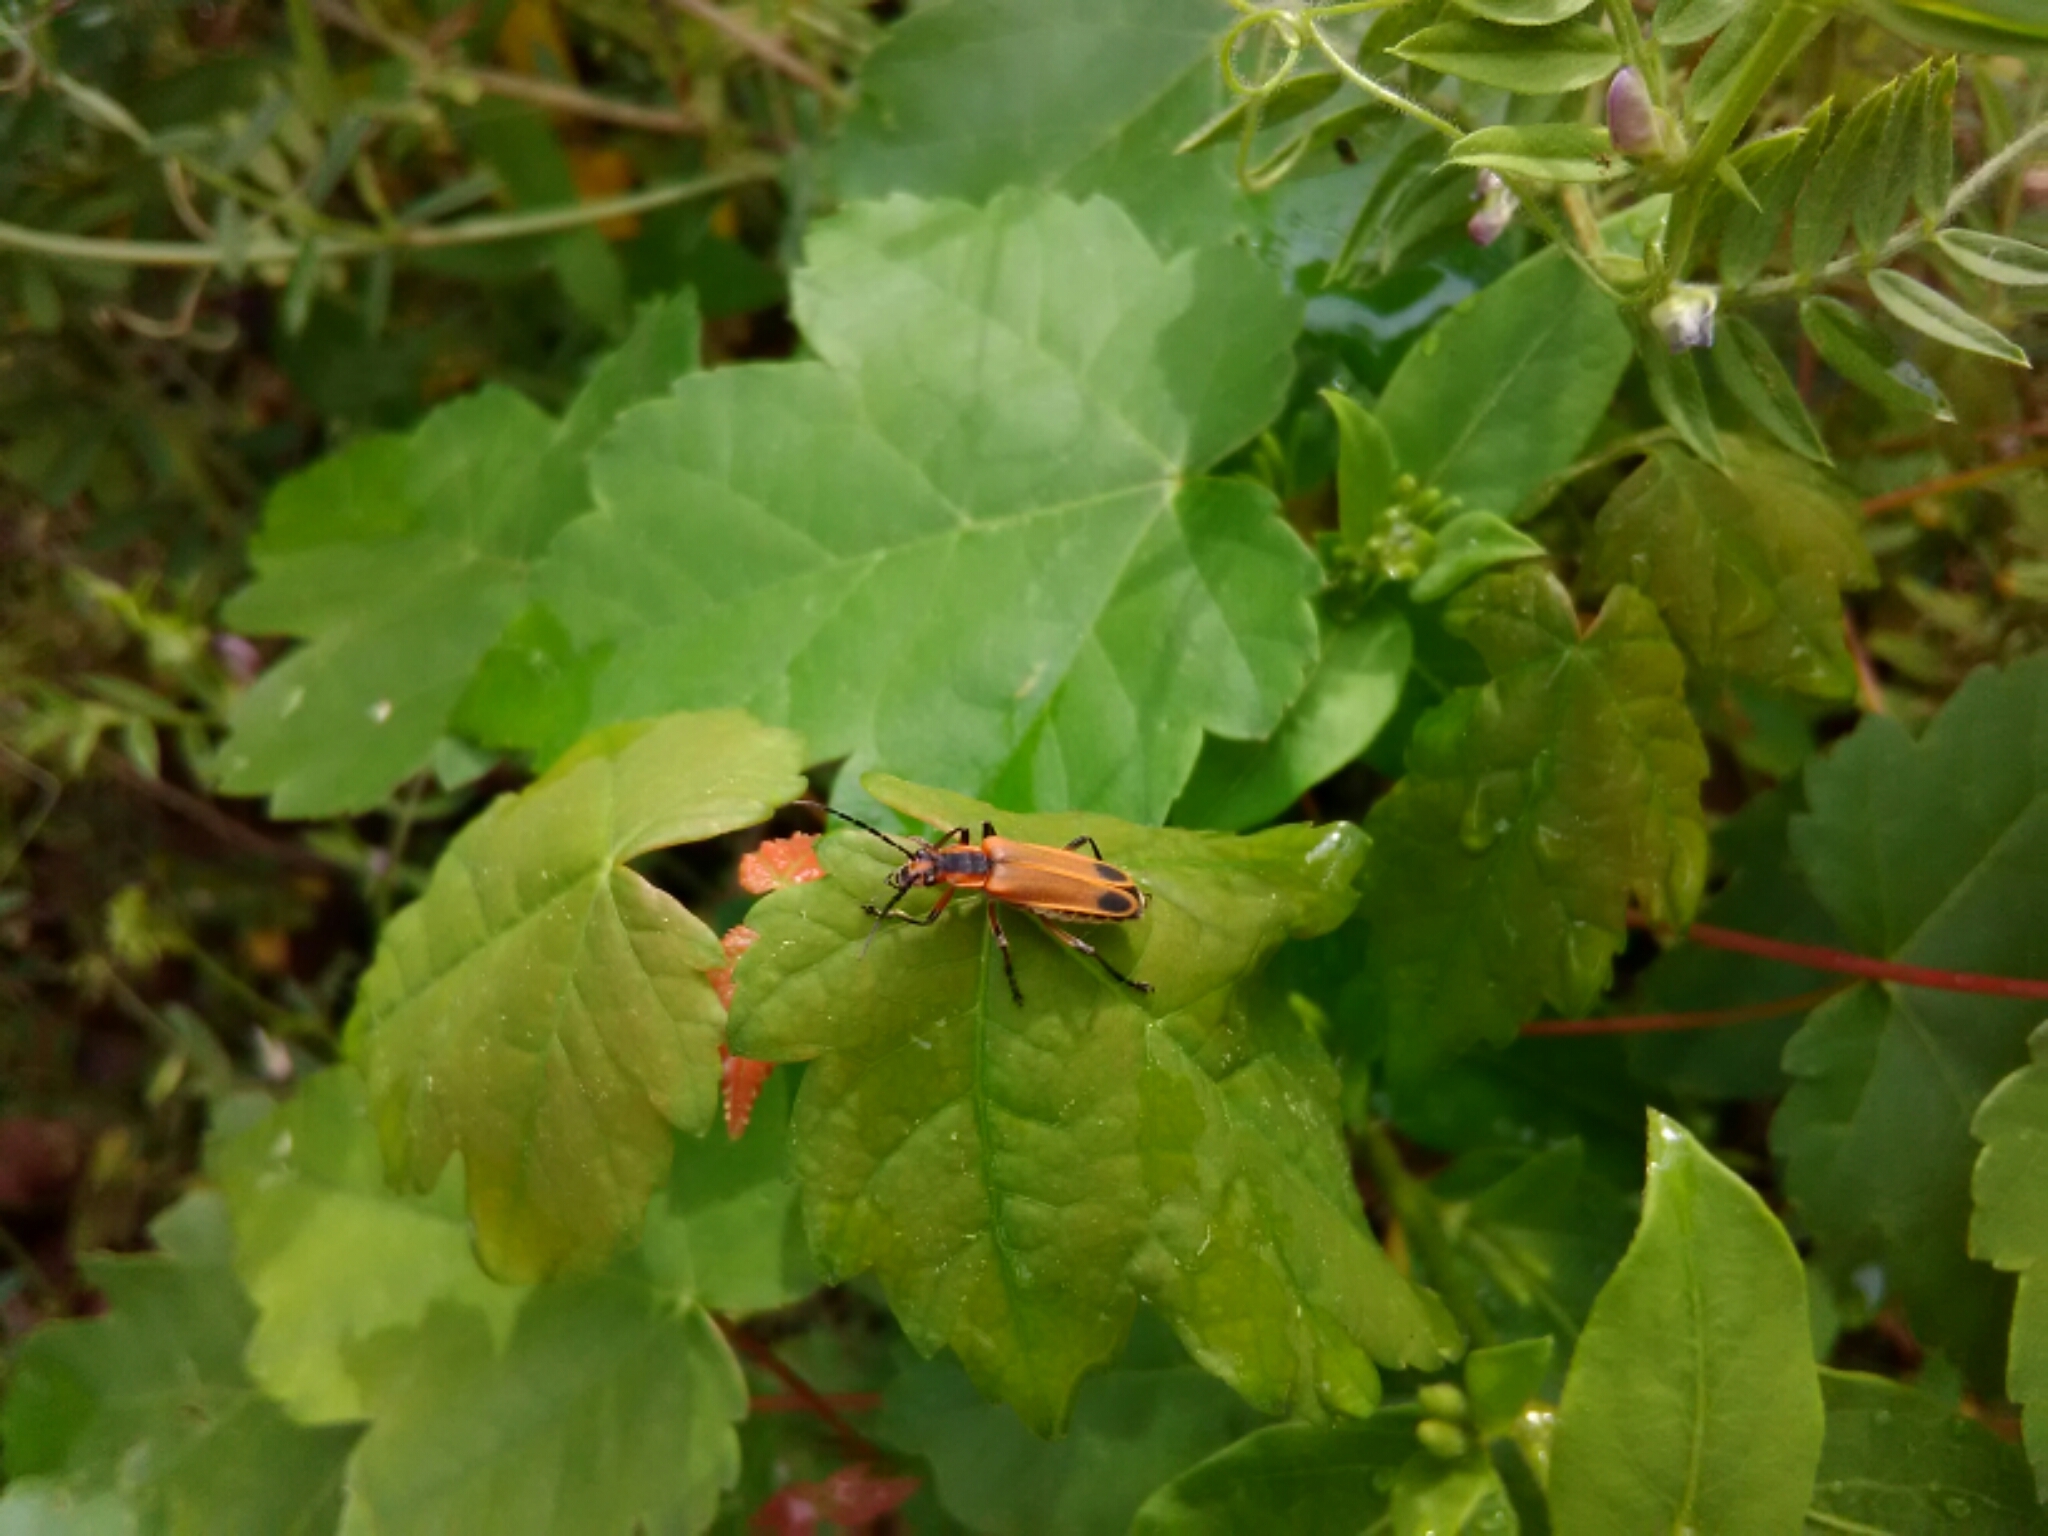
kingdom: Animalia
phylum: Arthropoda
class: Insecta
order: Coleoptera
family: Cantharidae
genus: Chauliognathus
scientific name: Chauliognathus marginatus
